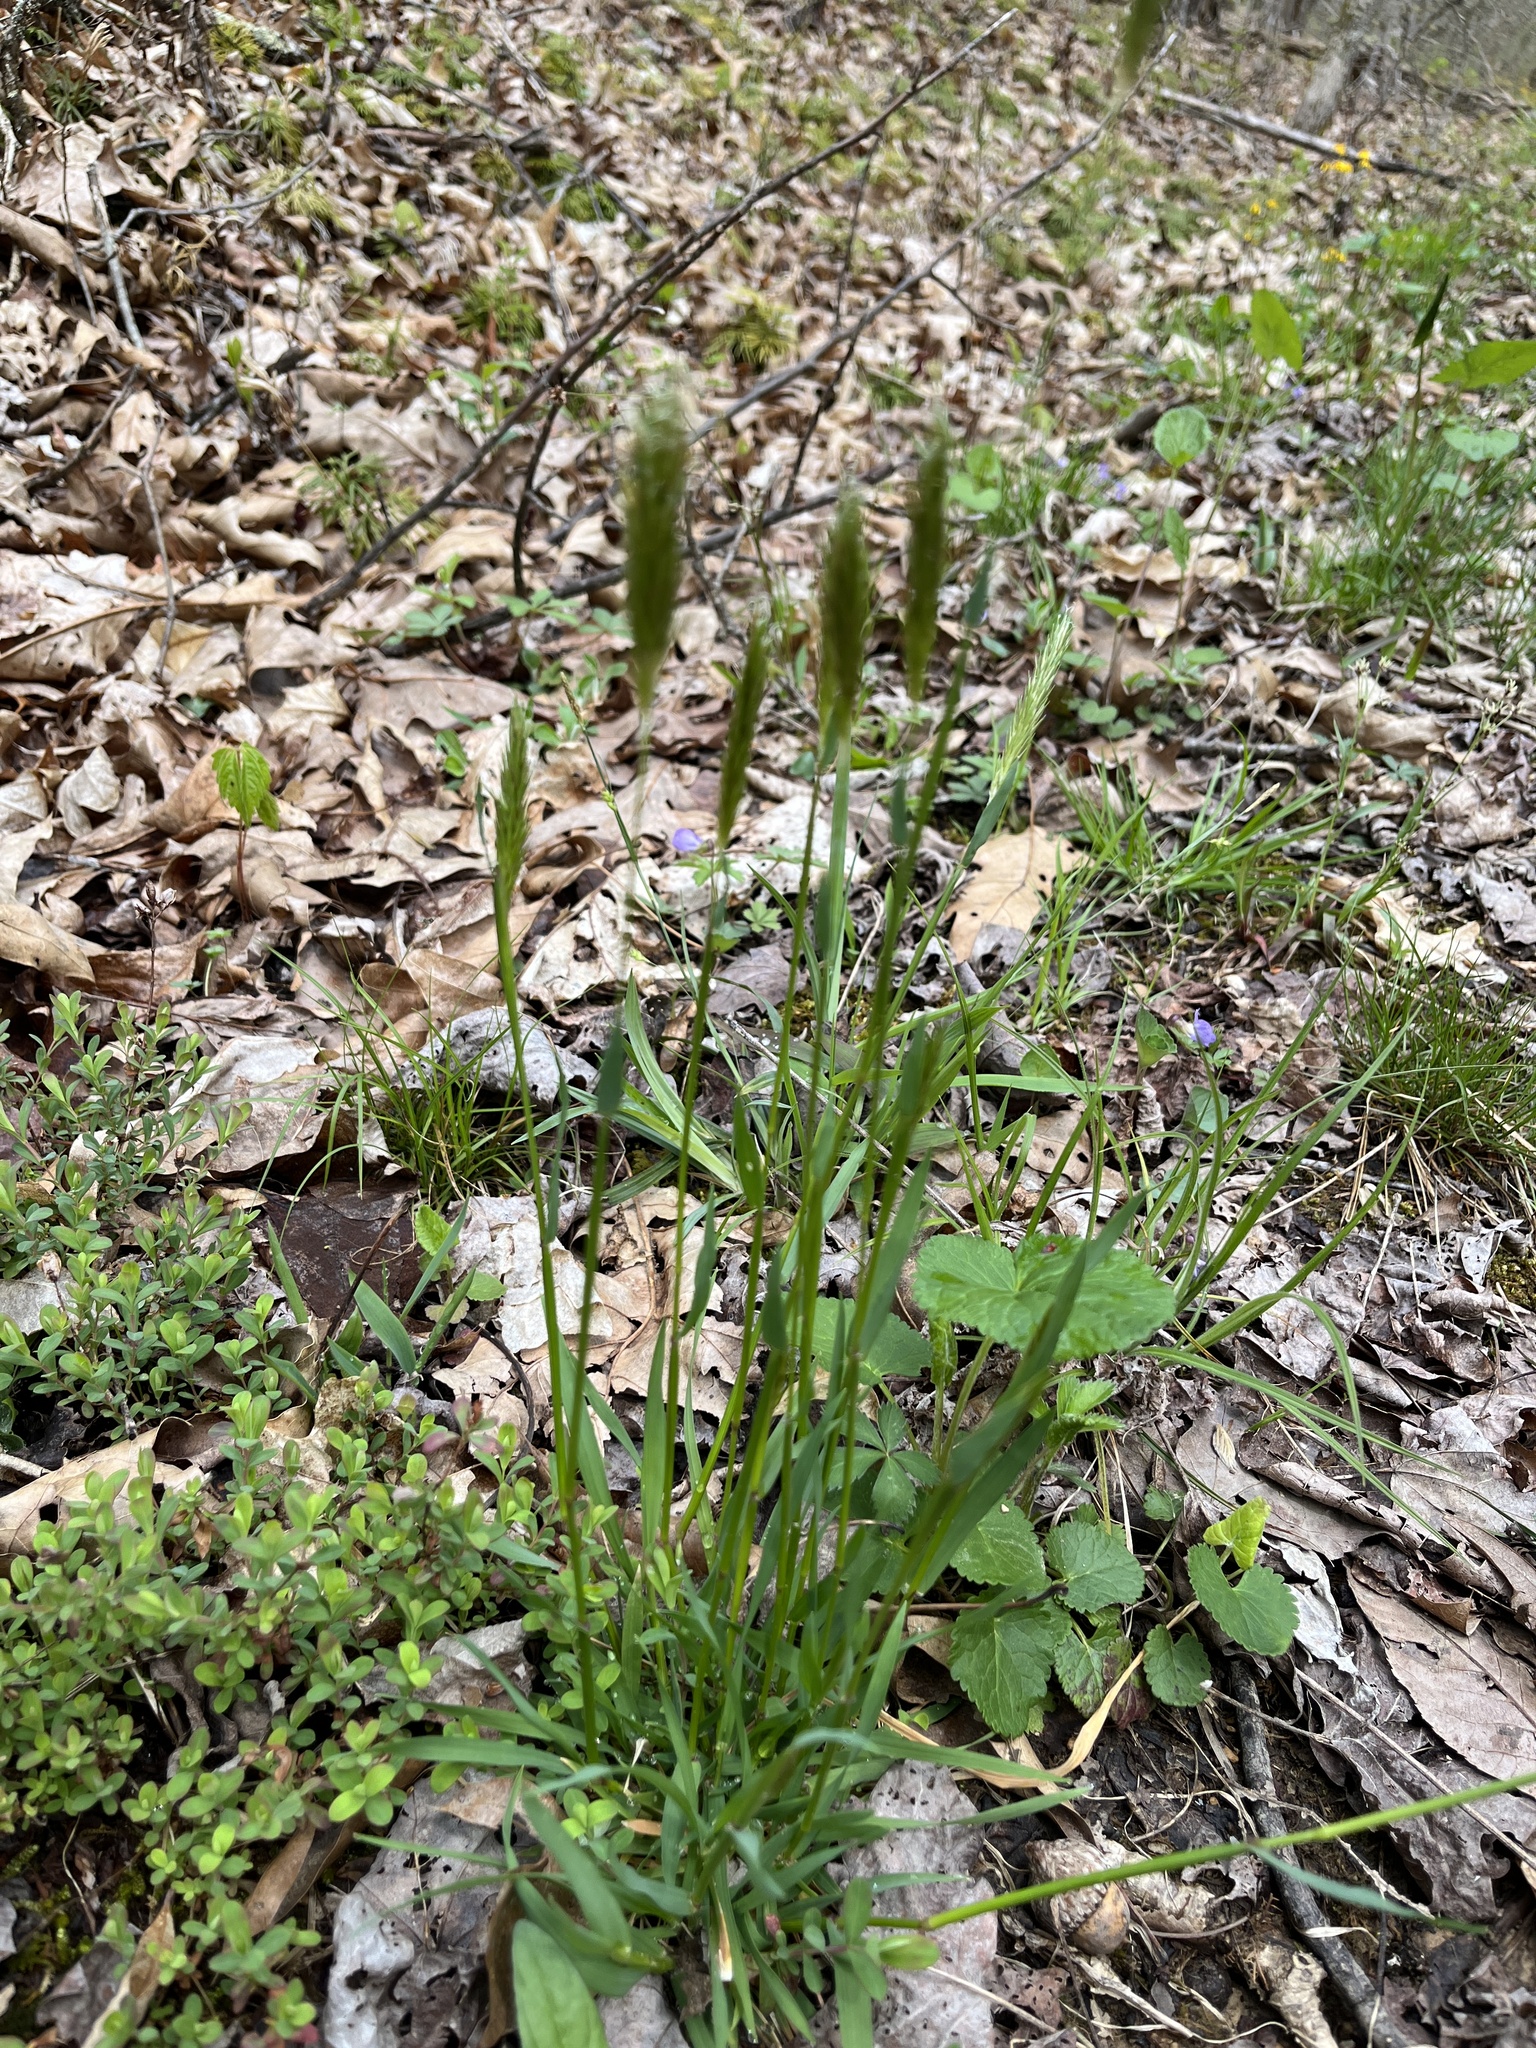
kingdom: Plantae
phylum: Tracheophyta
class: Liliopsida
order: Poales
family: Poaceae
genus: Anthoxanthum
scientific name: Anthoxanthum odoratum
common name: Sweet vernalgrass
